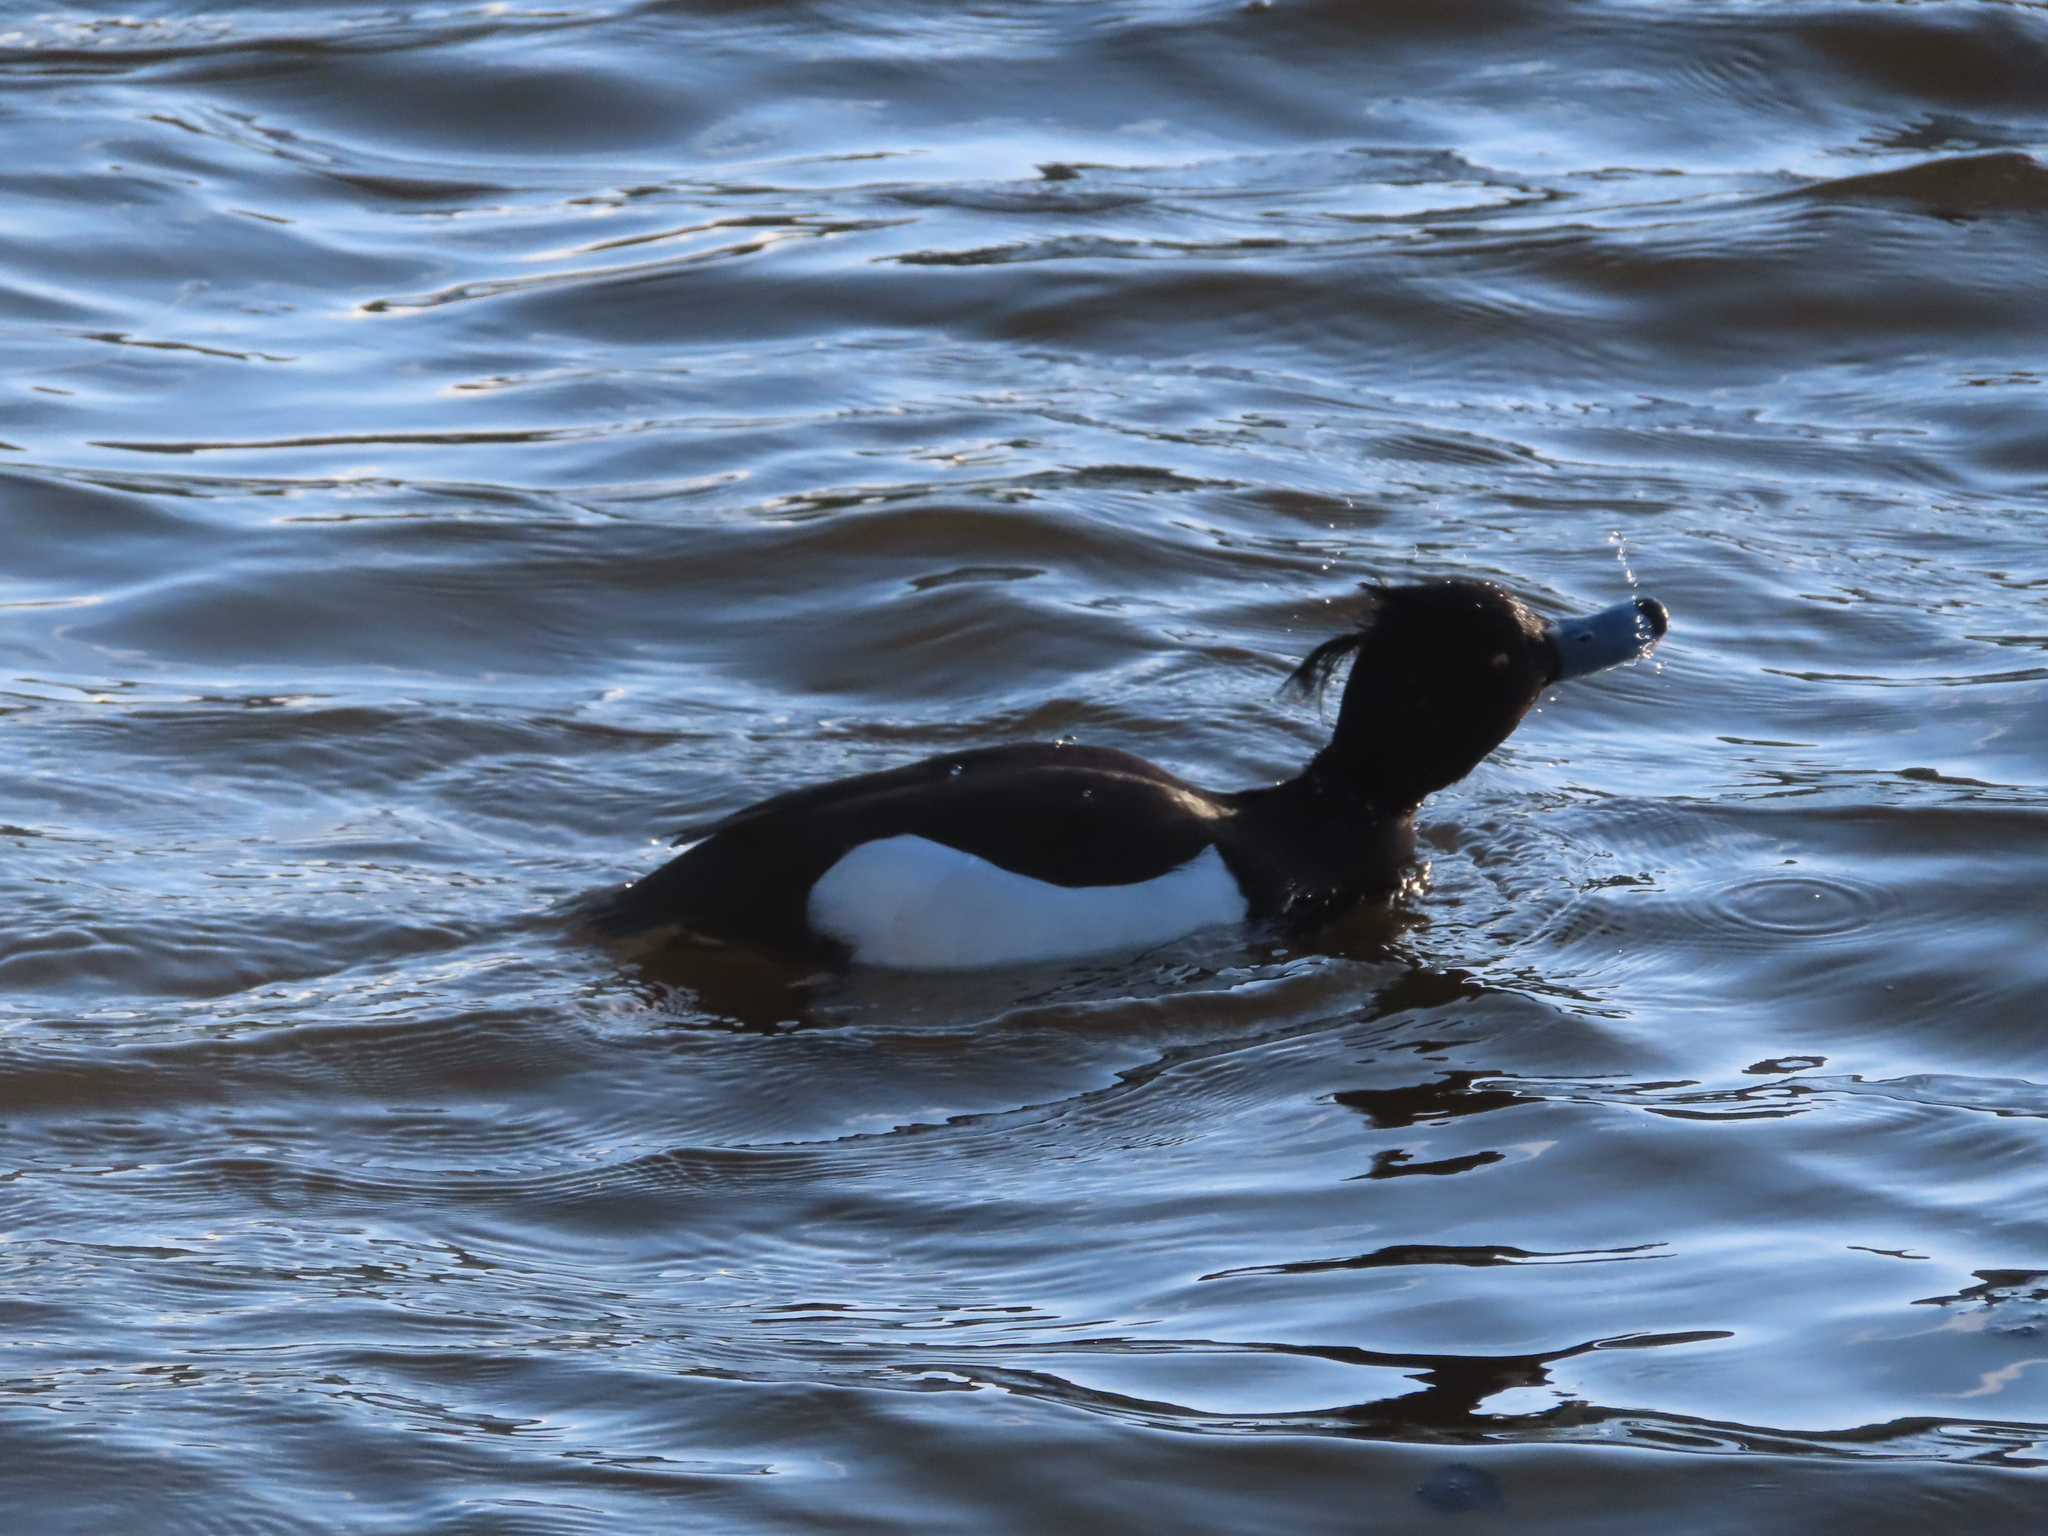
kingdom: Animalia
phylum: Chordata
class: Aves
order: Anseriformes
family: Anatidae
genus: Aythya
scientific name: Aythya fuligula
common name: Tufted duck
